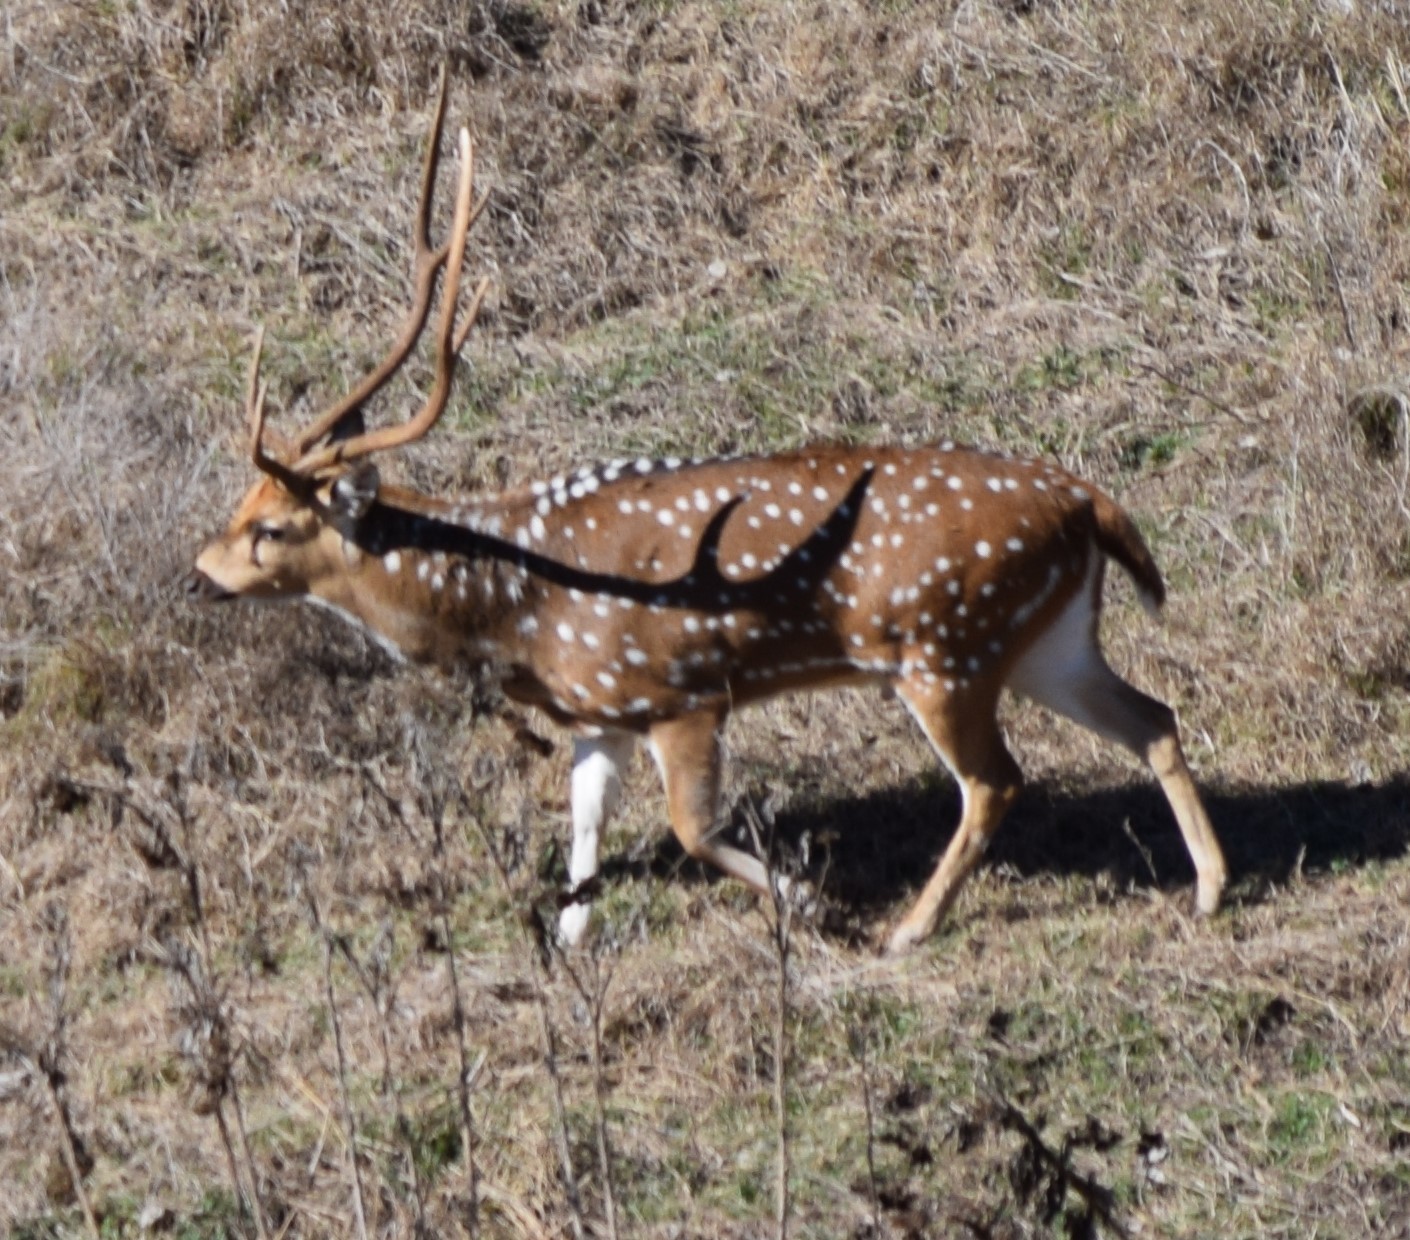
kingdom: Animalia
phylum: Chordata
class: Mammalia
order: Artiodactyla
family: Cervidae
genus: Axis
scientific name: Axis axis
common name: Chital
